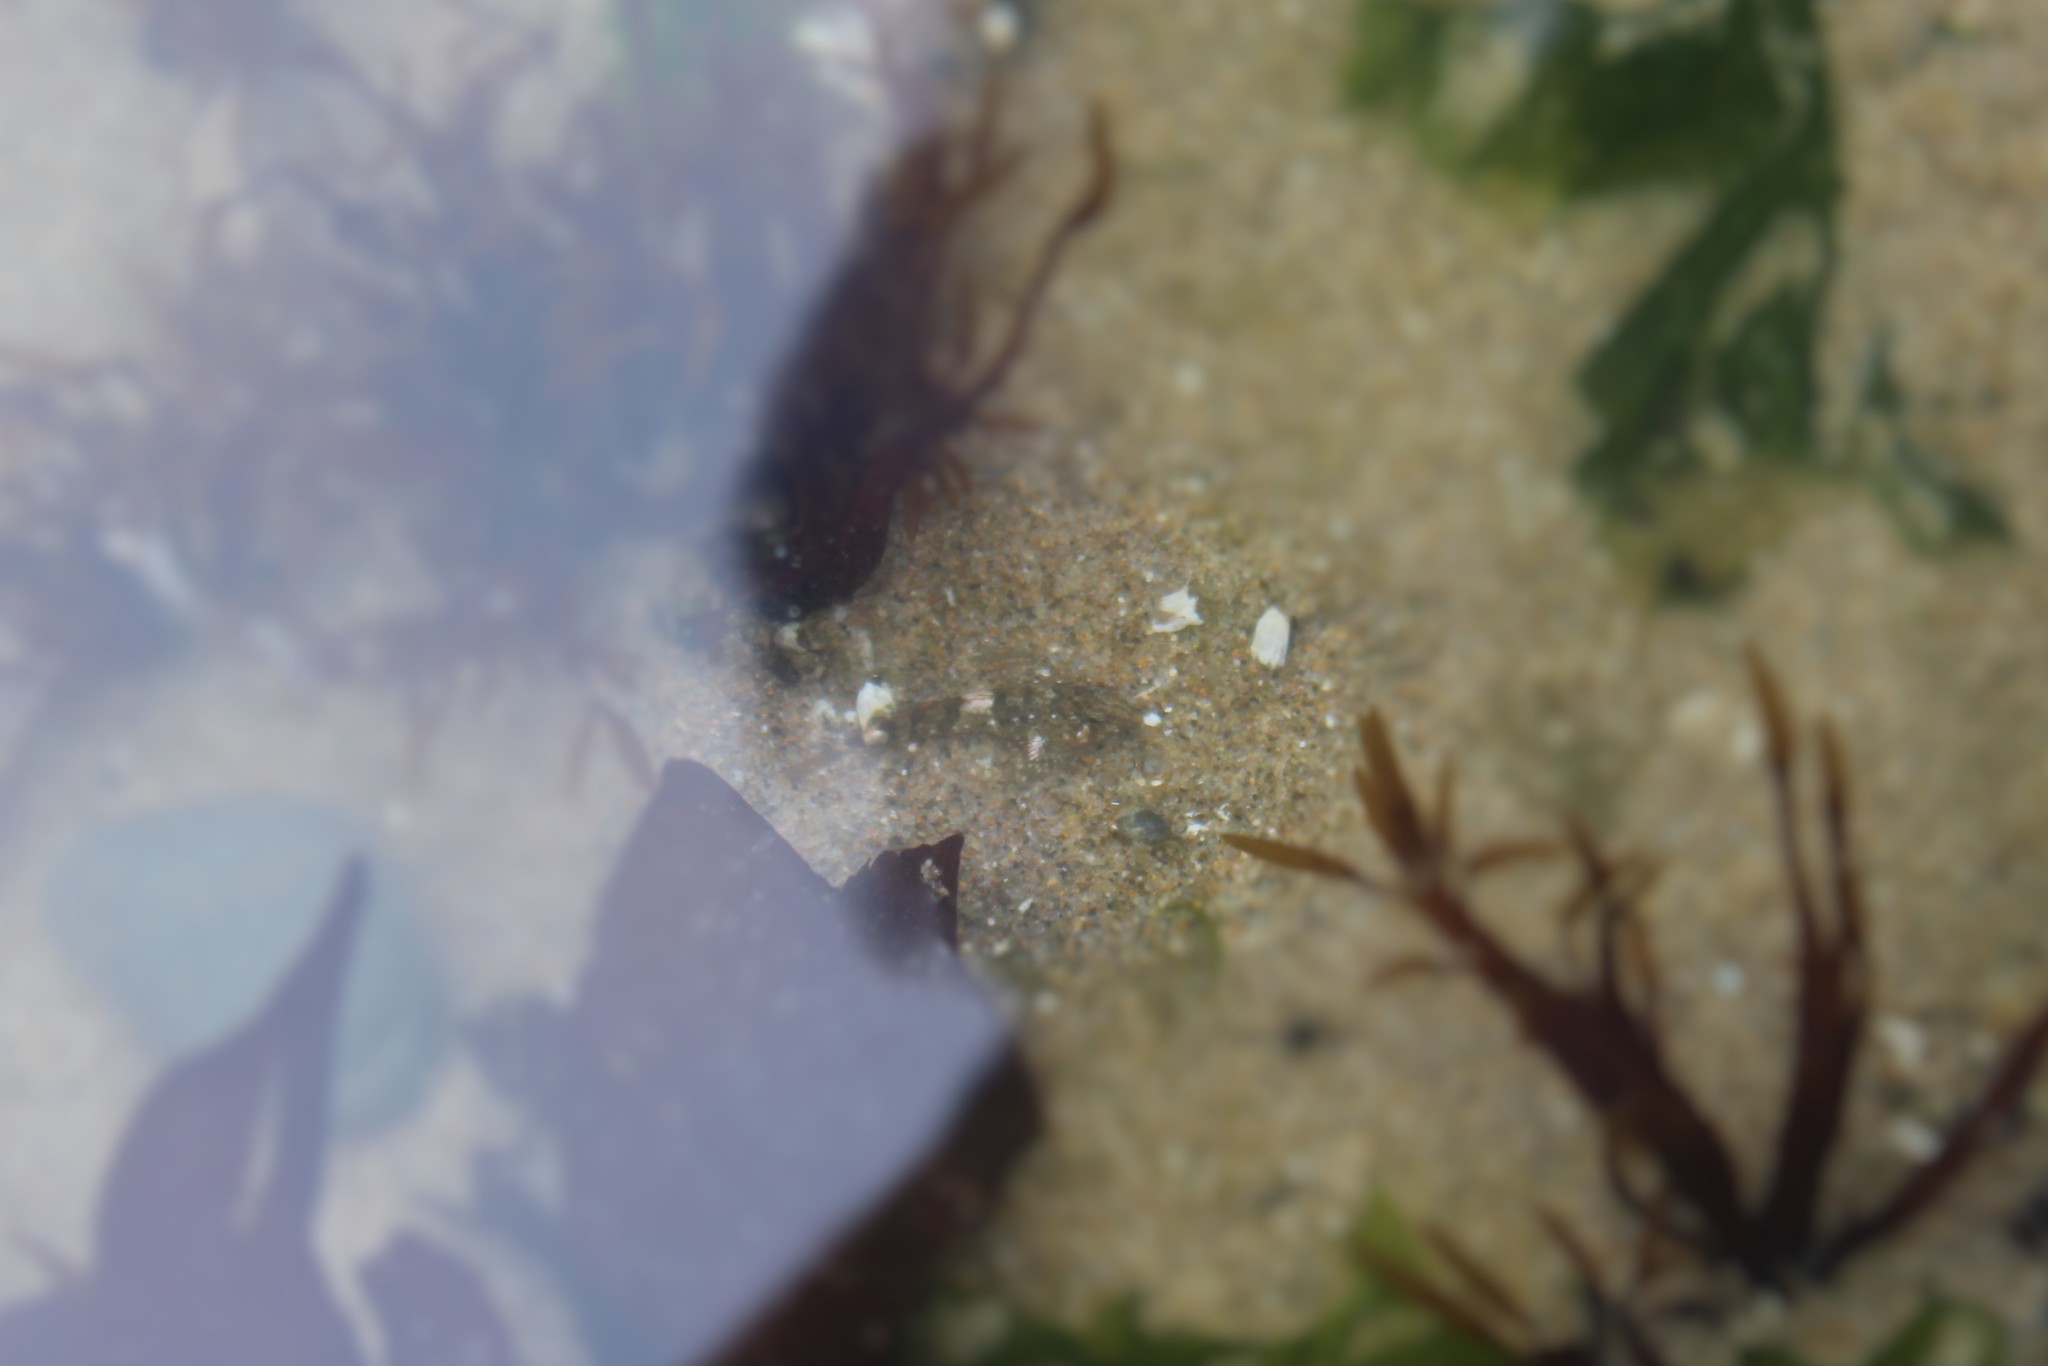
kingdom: Animalia
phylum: Chordata
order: Scorpaeniformes
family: Cottidae
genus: Oligocottus
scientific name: Oligocottus maculosus
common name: Tidepool sculpin
